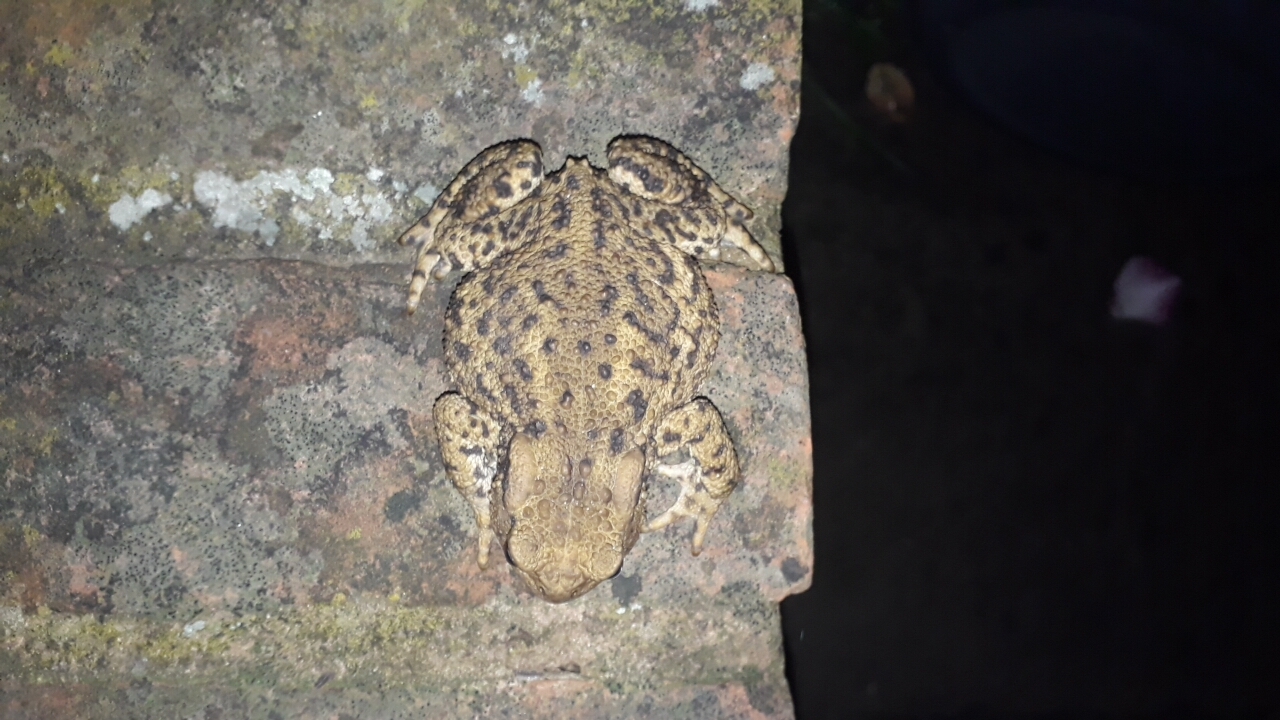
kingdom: Animalia
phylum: Chordata
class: Amphibia
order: Anura
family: Bufonidae
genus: Bufo
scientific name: Bufo bufo
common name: Common toad
